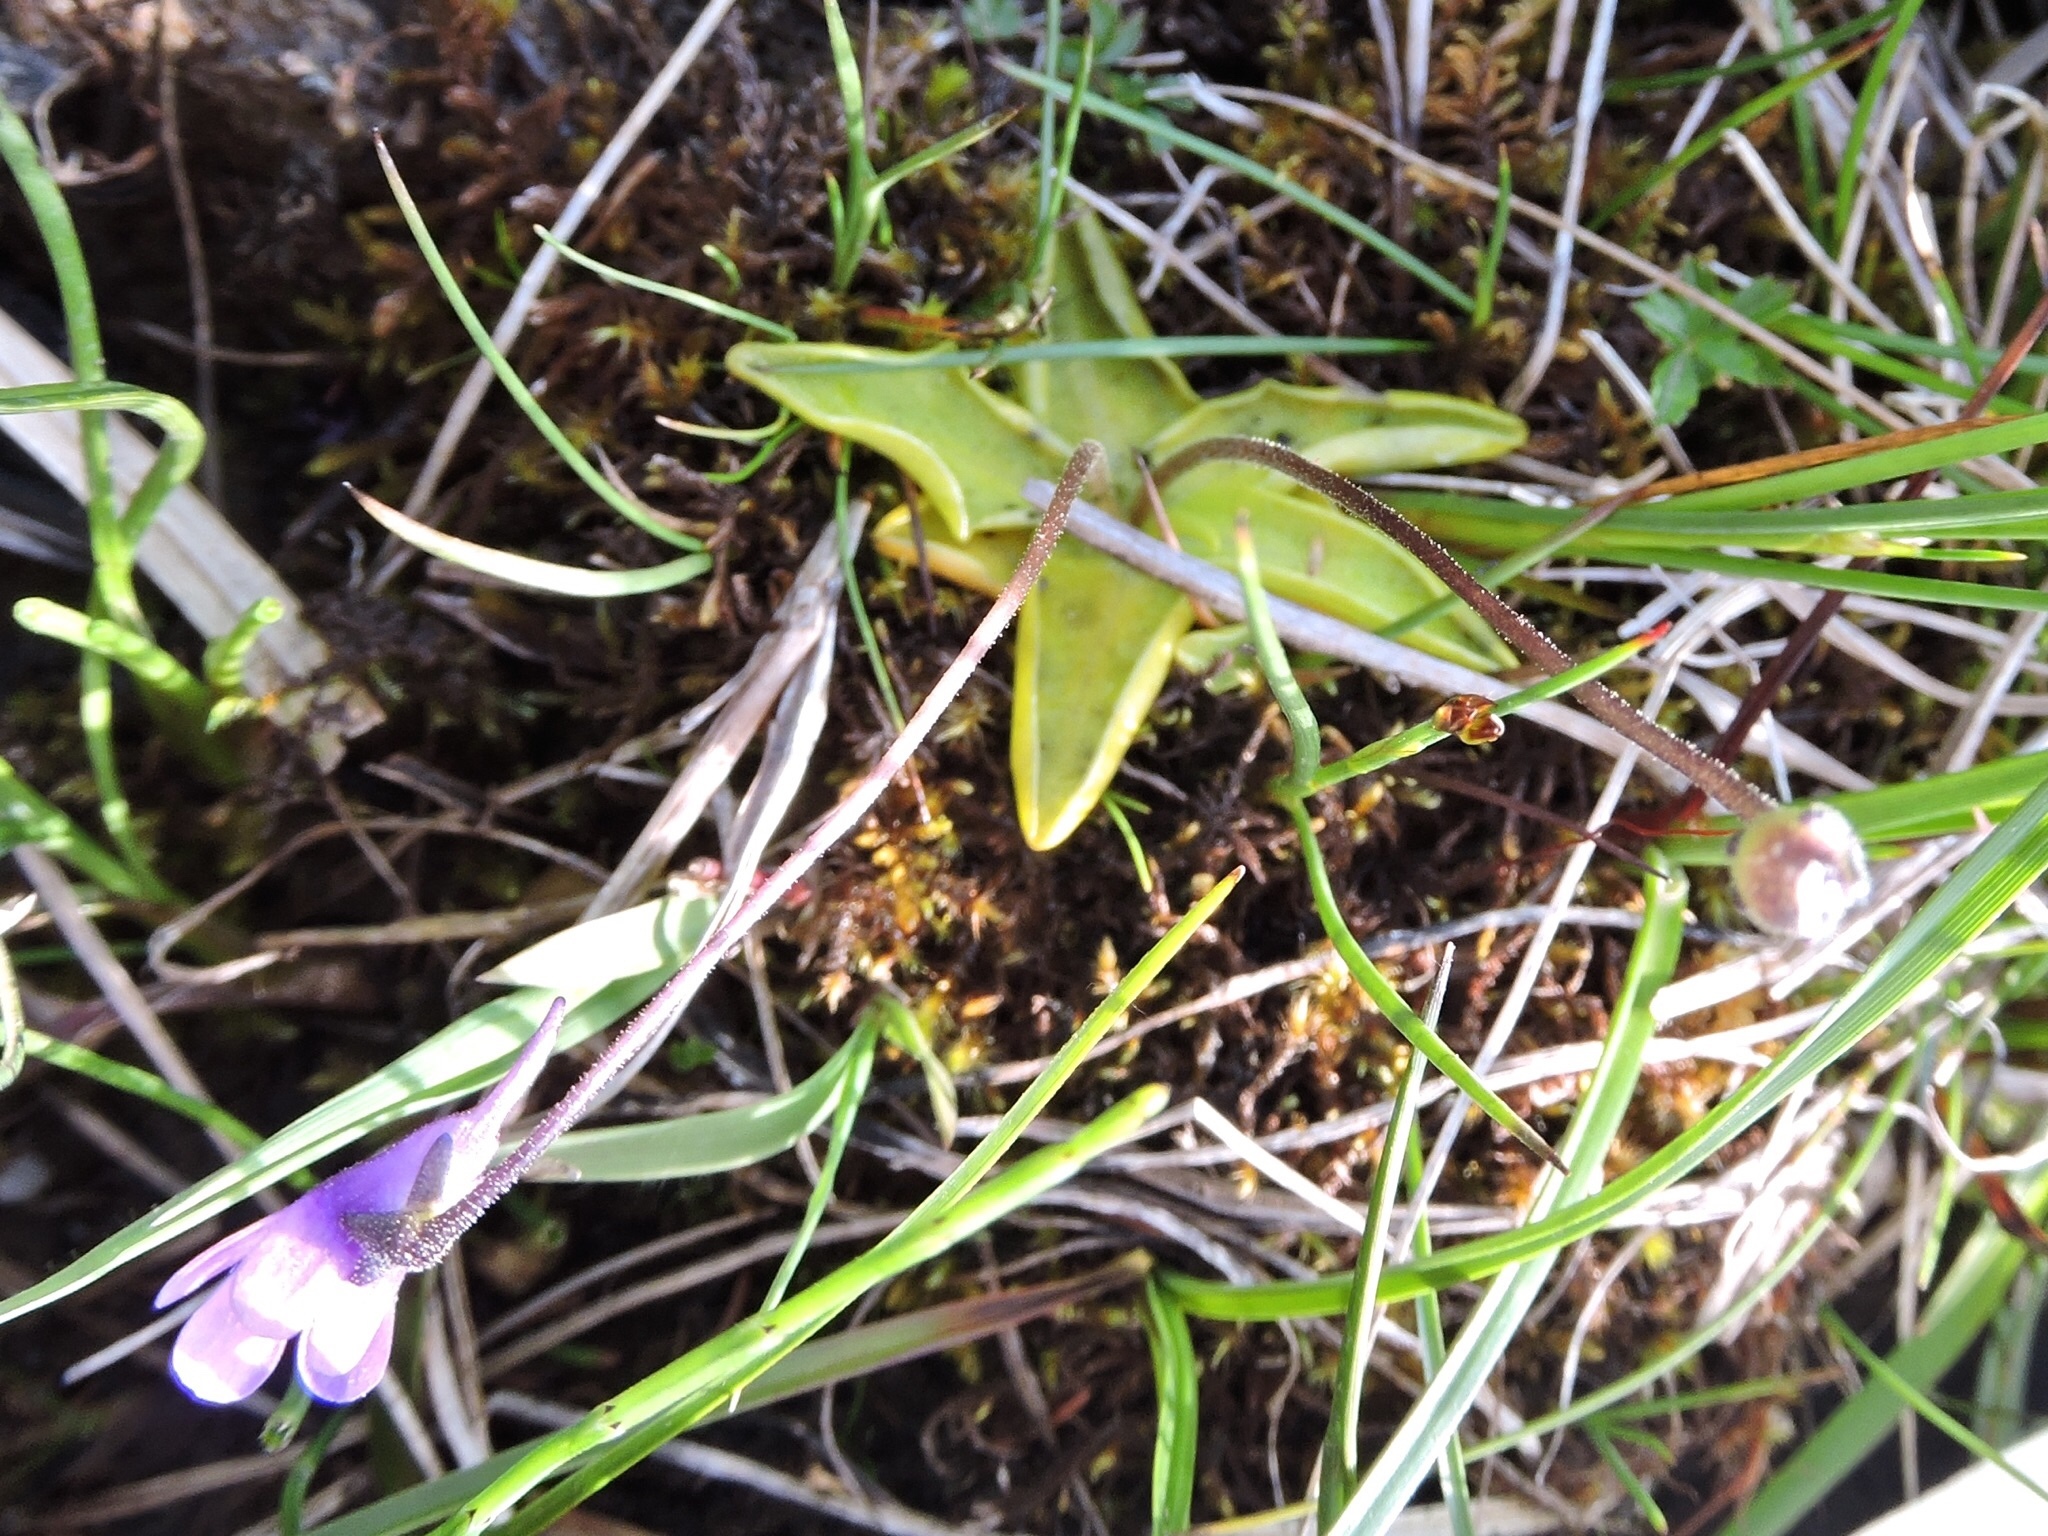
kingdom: Plantae
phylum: Tracheophyta
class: Magnoliopsida
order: Lamiales
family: Lentibulariaceae
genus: Pinguicula
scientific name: Pinguicula leptoceras
